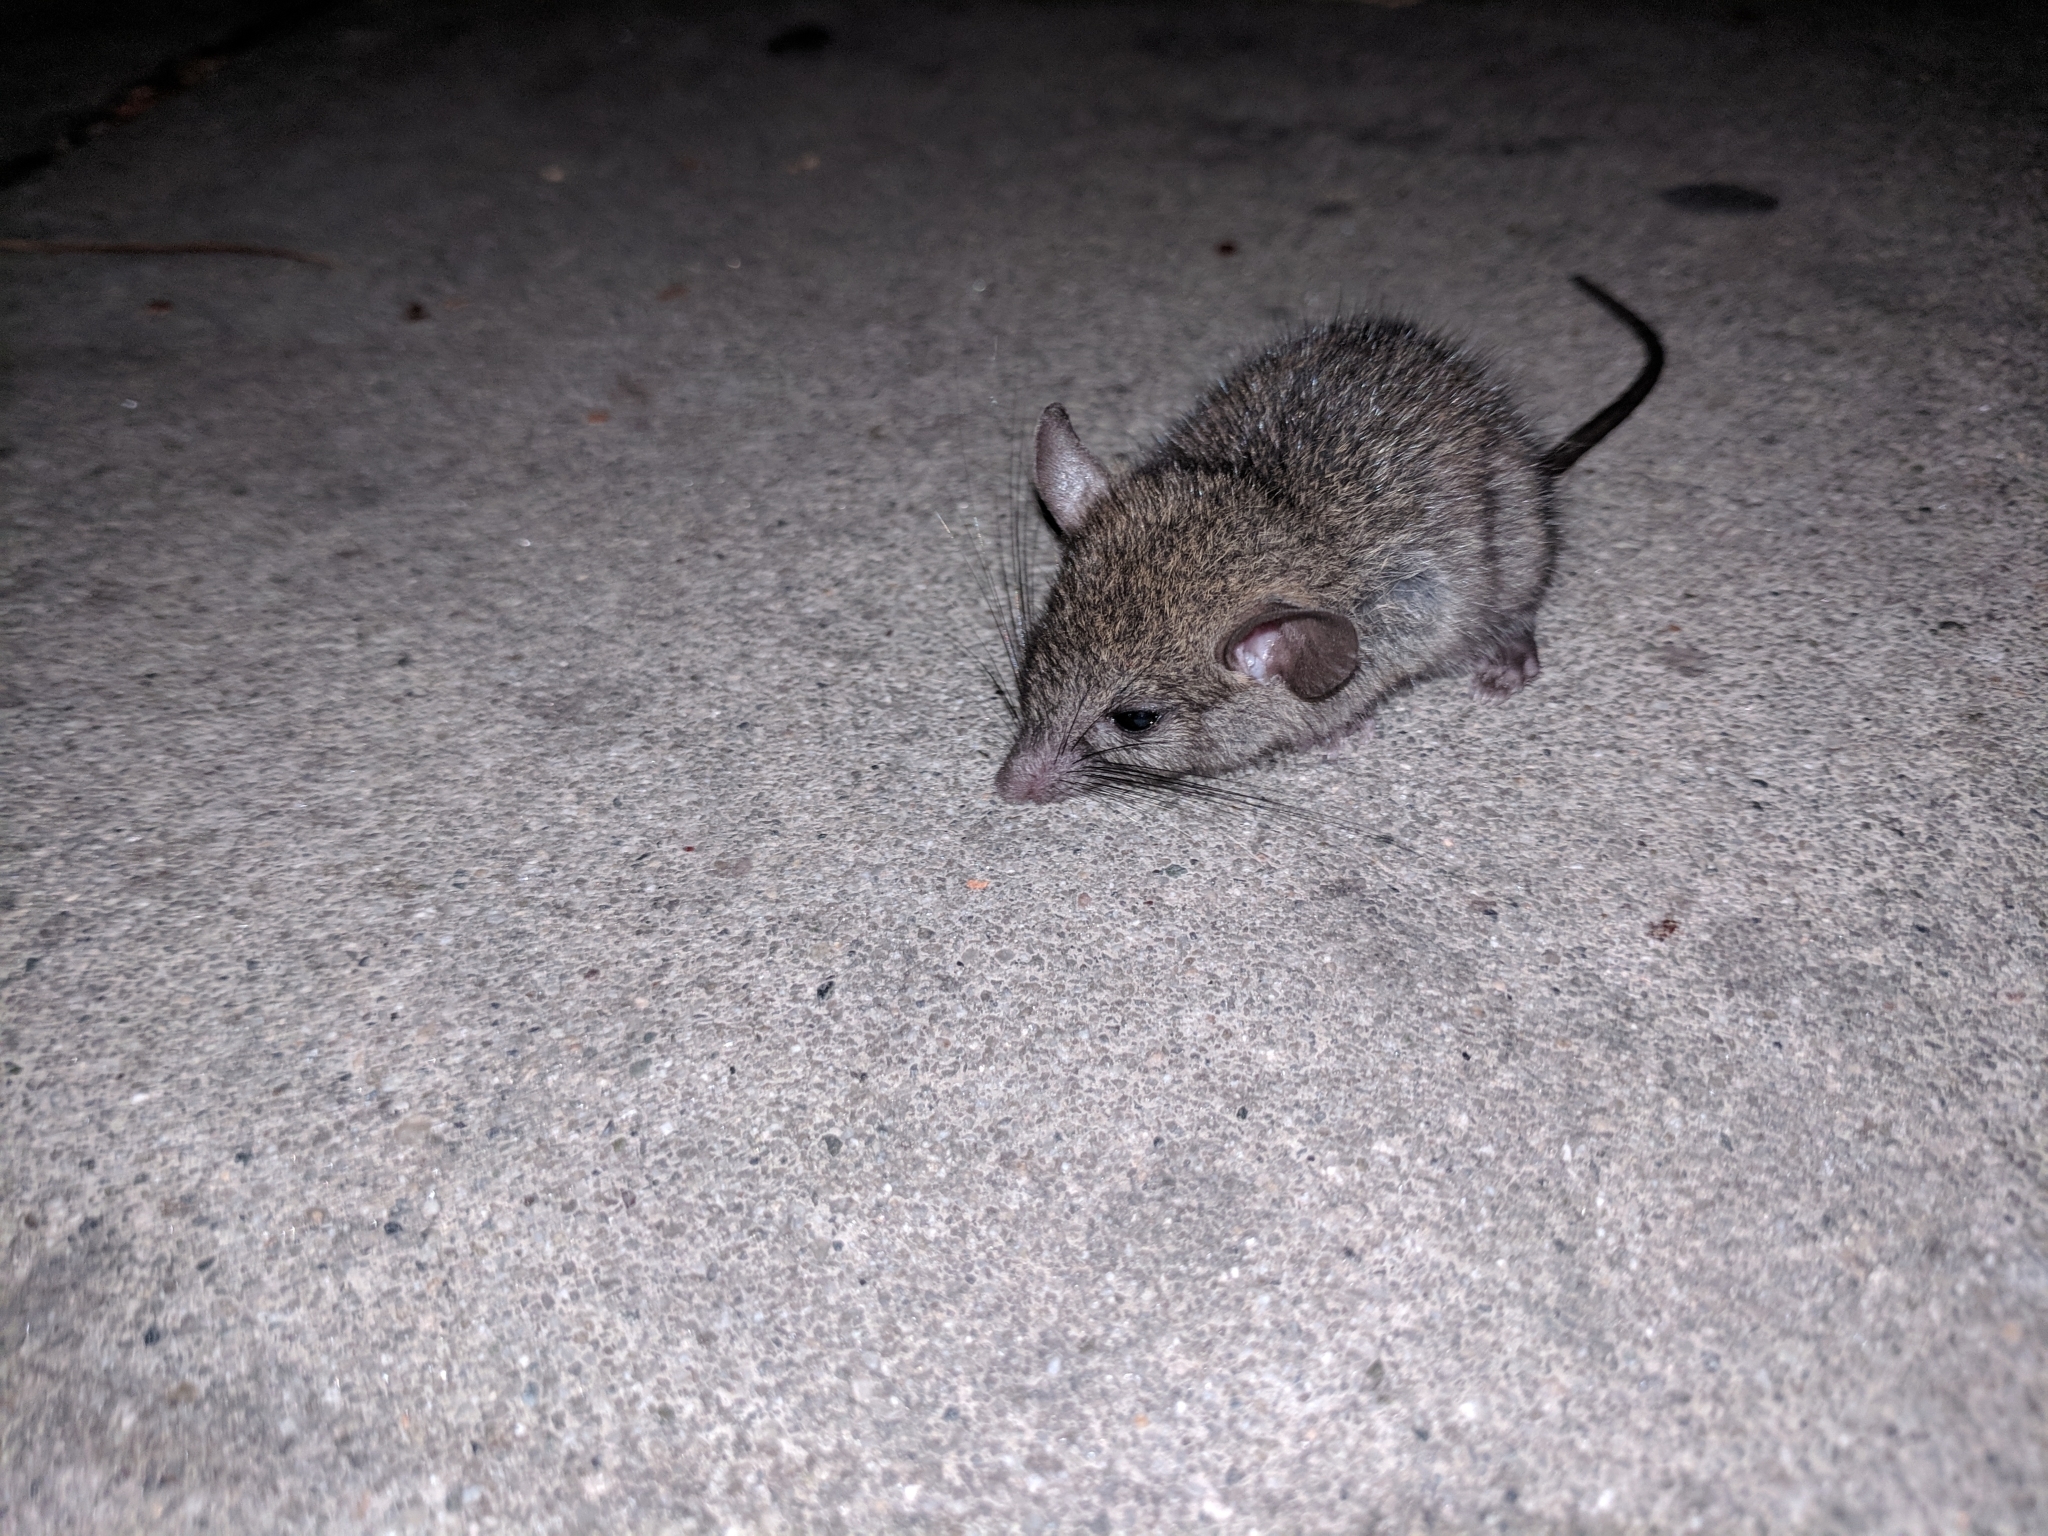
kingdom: Animalia
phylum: Chordata
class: Mammalia
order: Rodentia
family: Muridae
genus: Mus
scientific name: Mus musculus
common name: House mouse
